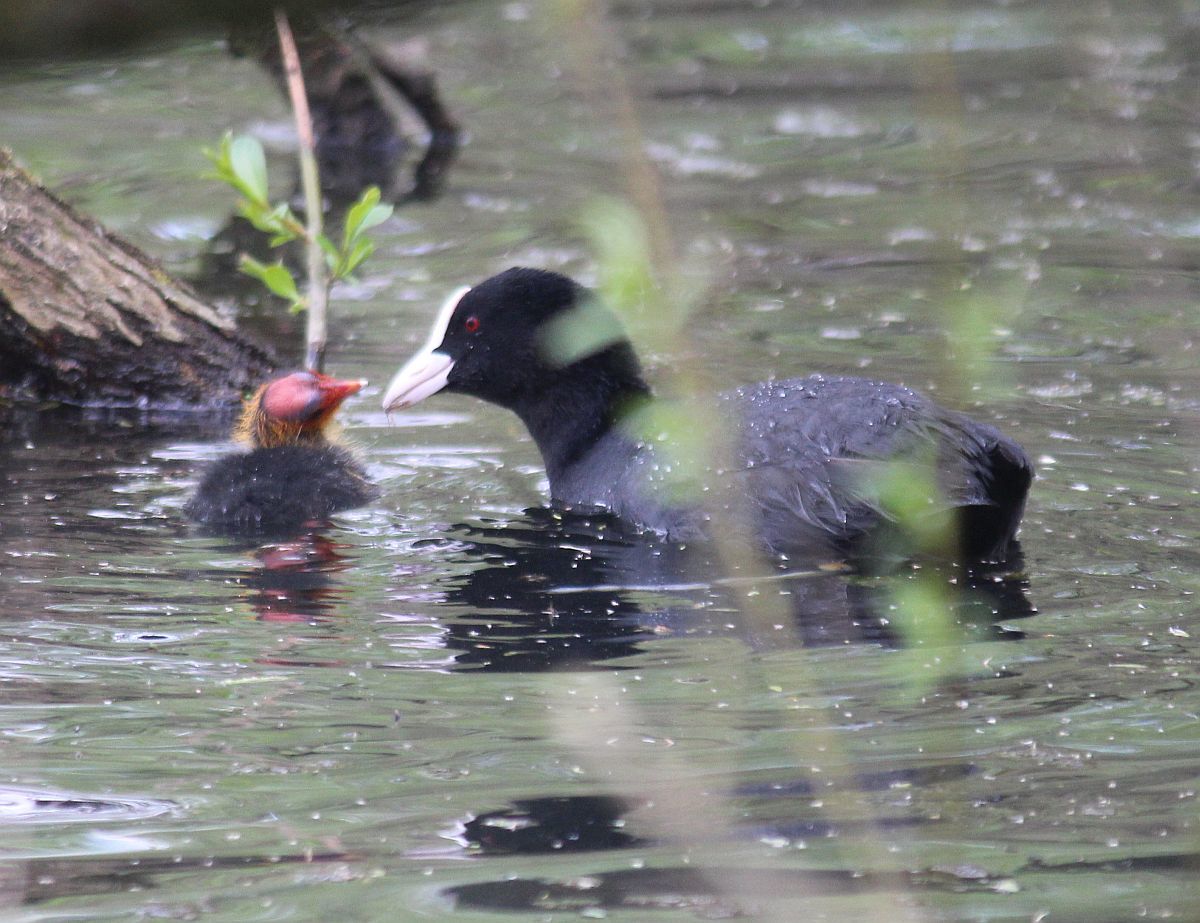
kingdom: Animalia
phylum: Chordata
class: Aves
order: Gruiformes
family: Rallidae
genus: Fulica
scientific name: Fulica atra
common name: Eurasian coot
